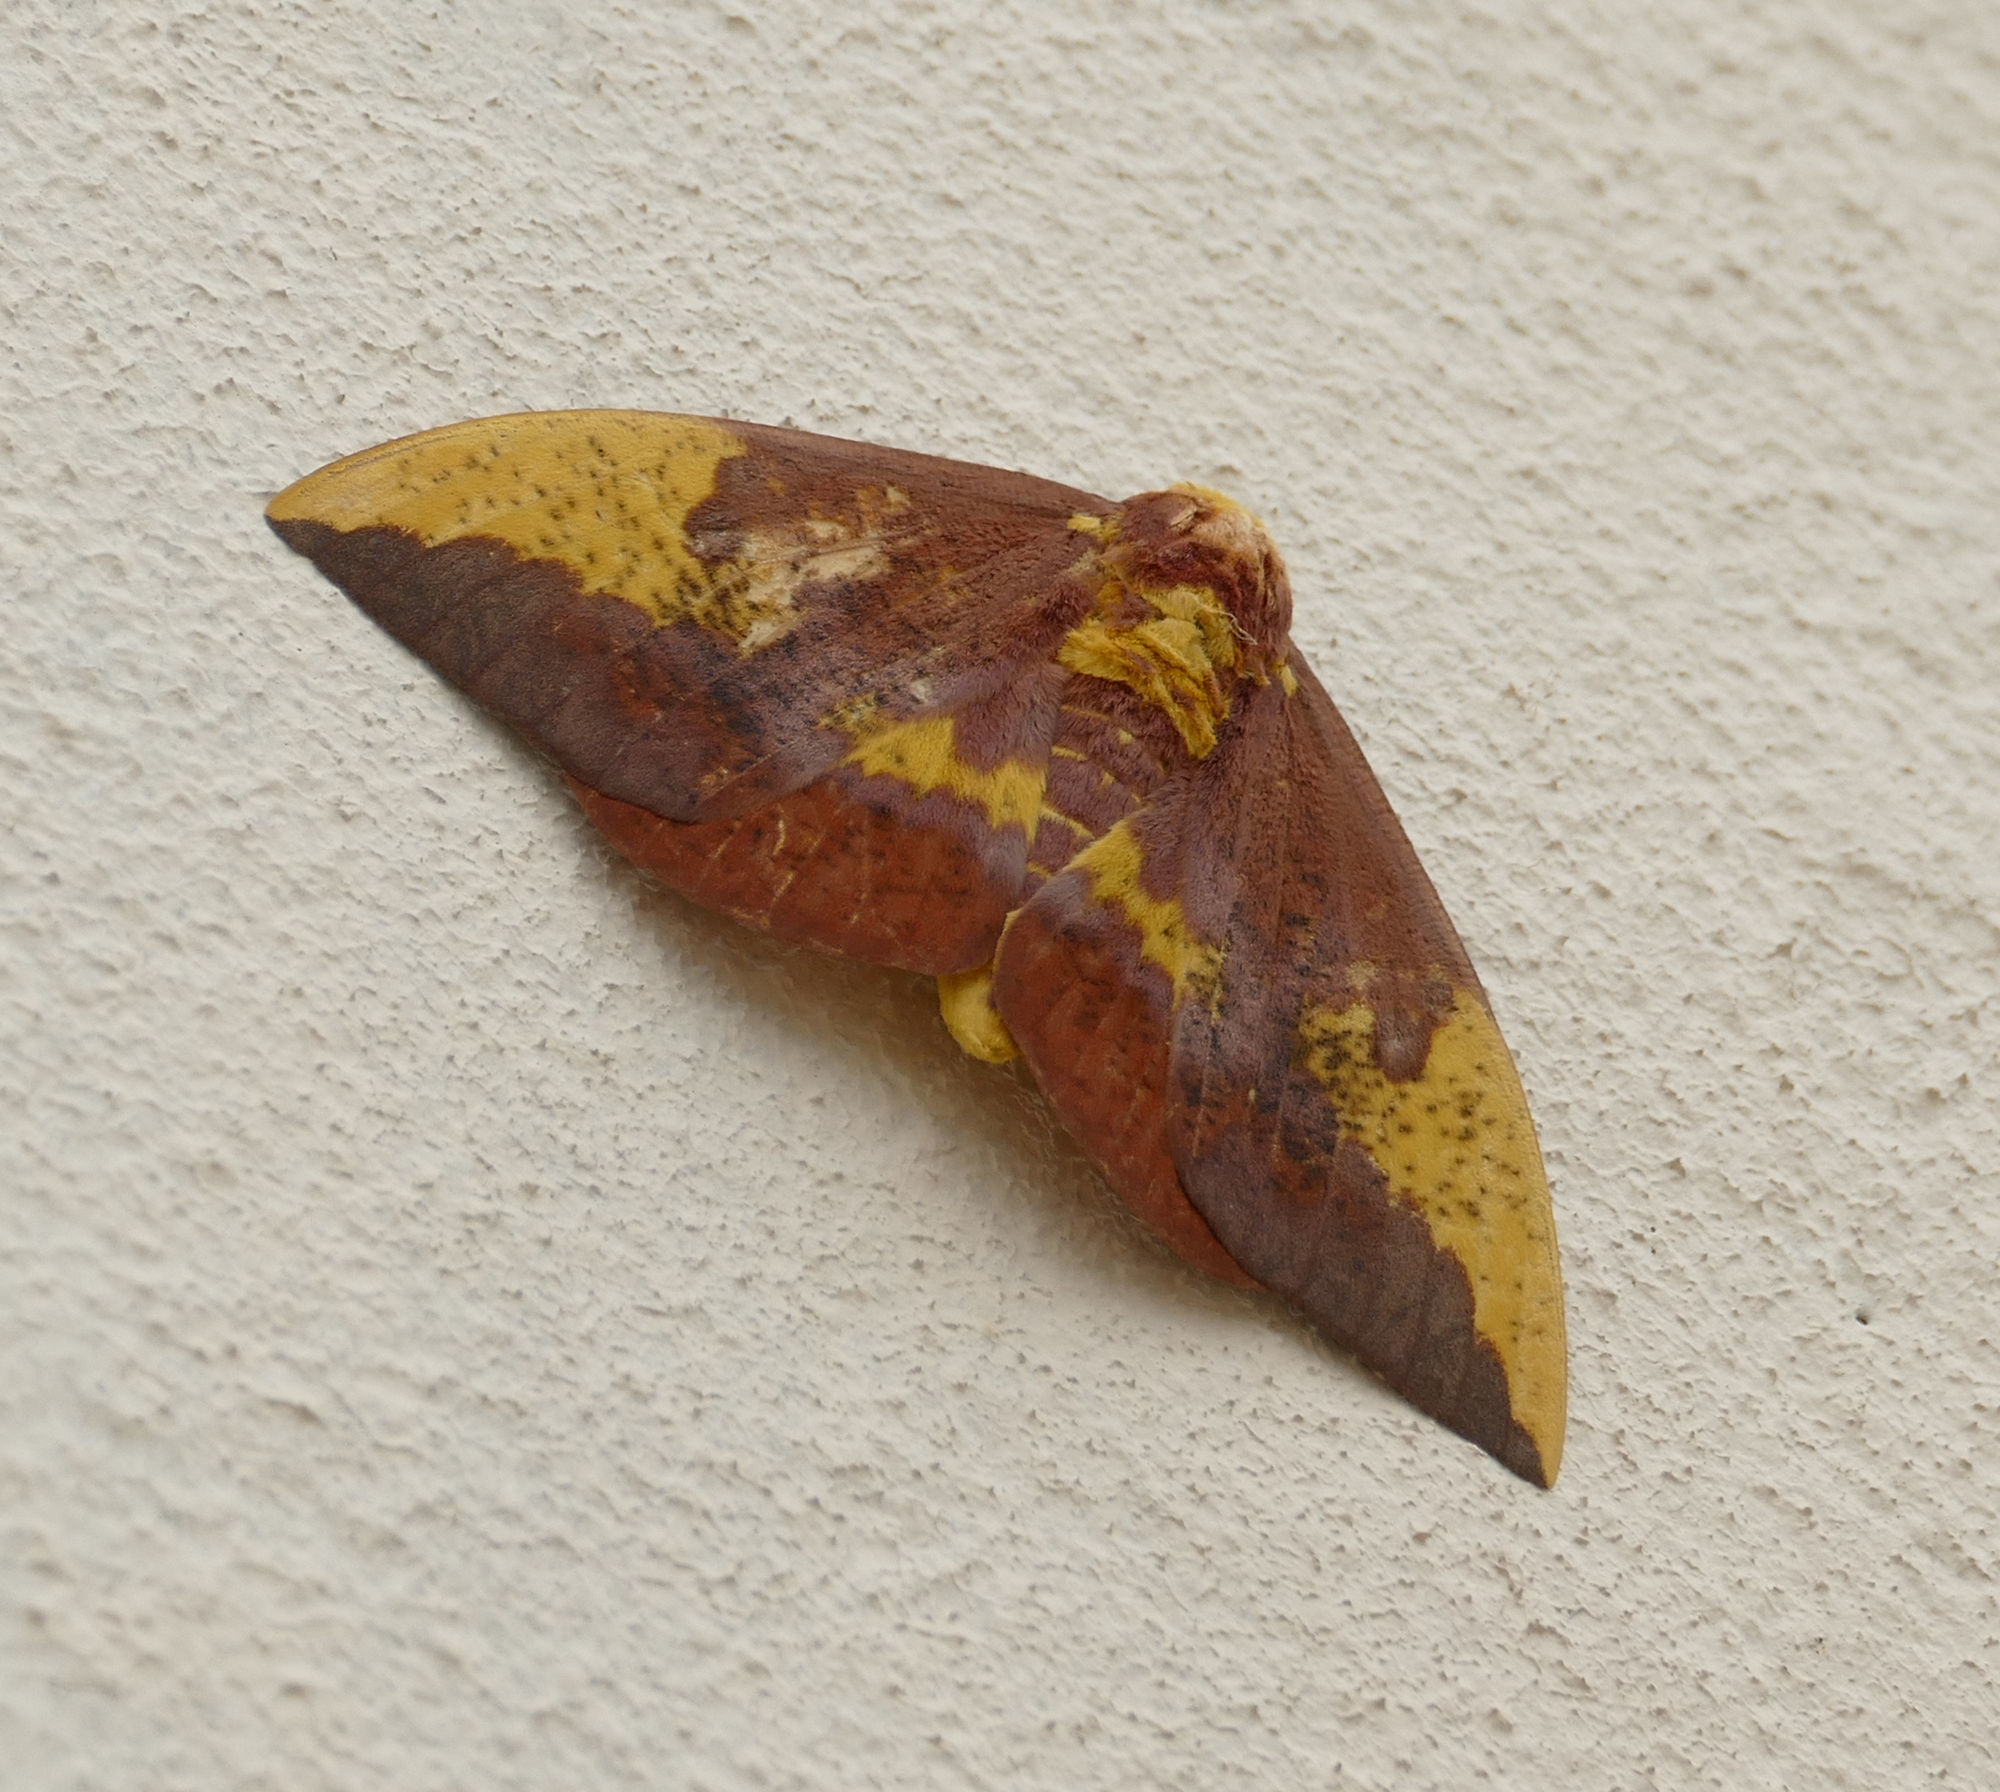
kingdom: Animalia
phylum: Arthropoda
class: Insecta
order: Lepidoptera
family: Saturniidae
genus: Eacles
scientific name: Eacles imperialis
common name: Imperial moth
